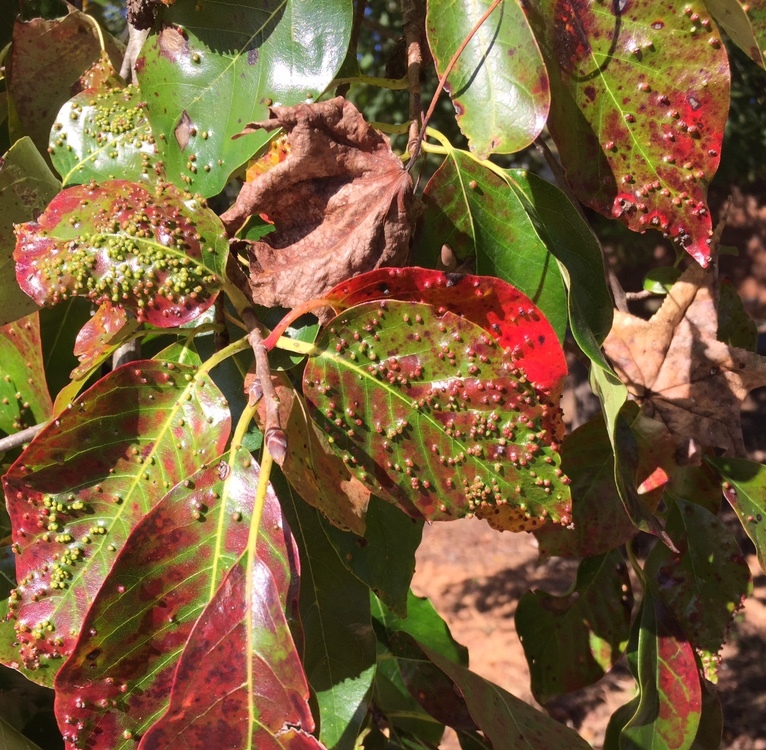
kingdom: Animalia
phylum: Arthropoda
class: Arachnida
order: Trombidiformes
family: Eriophyidae
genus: Aceria
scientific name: Aceria
